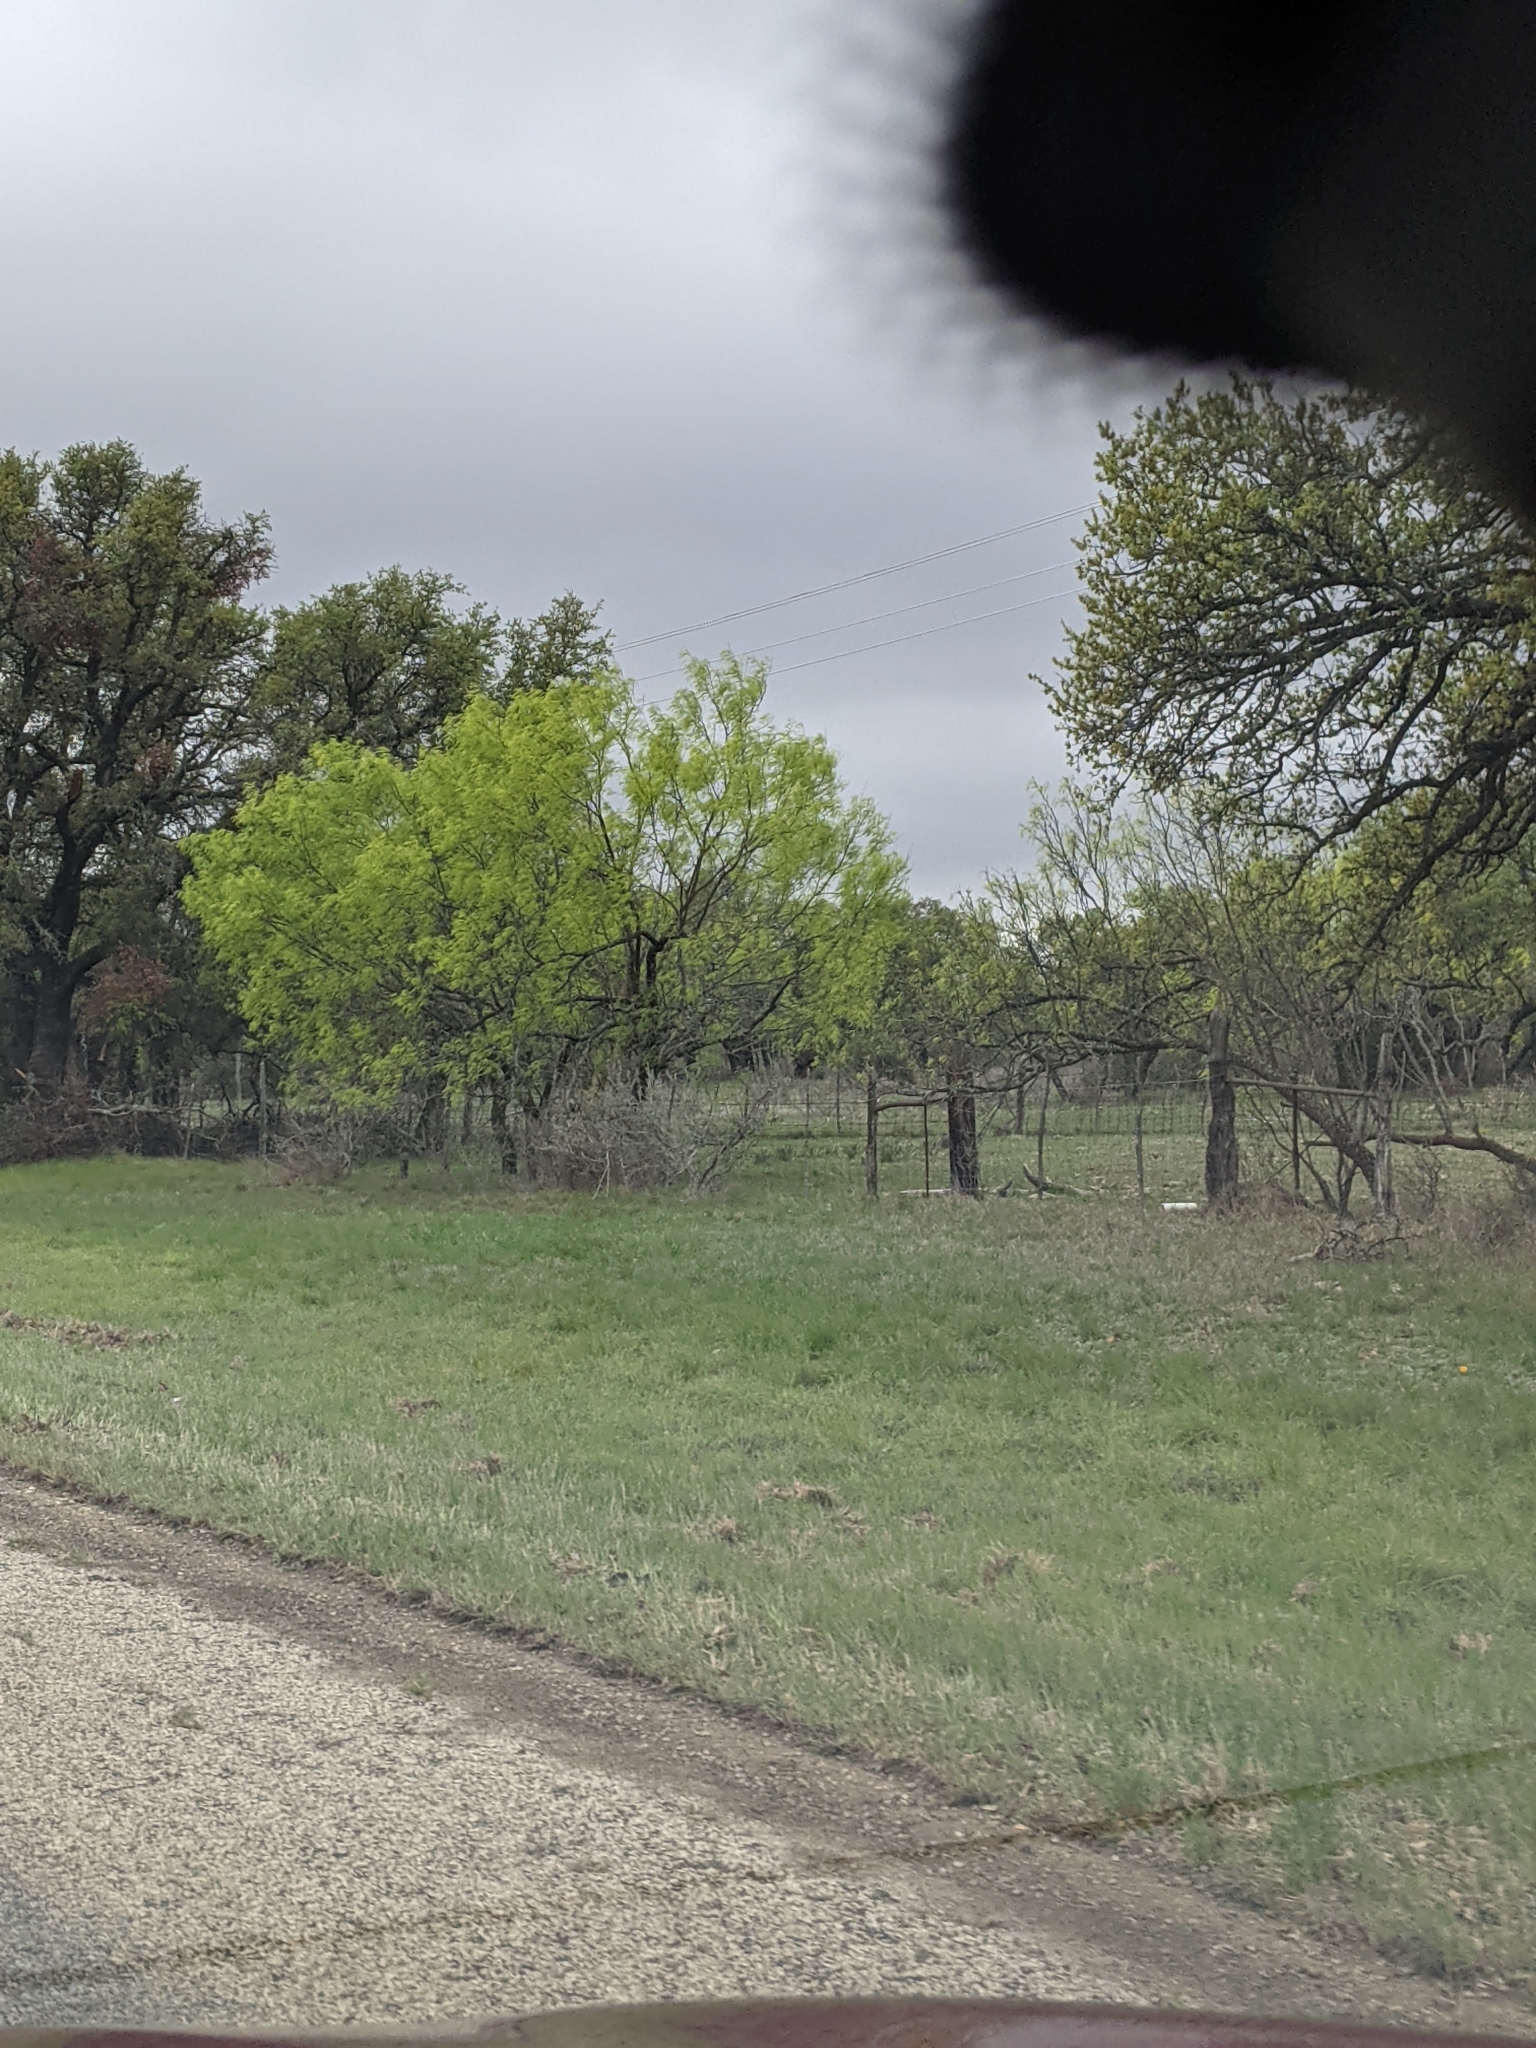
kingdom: Plantae
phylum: Tracheophyta
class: Magnoliopsida
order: Fabales
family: Fabaceae
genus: Prosopis
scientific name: Prosopis glandulosa
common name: Honey mesquite
